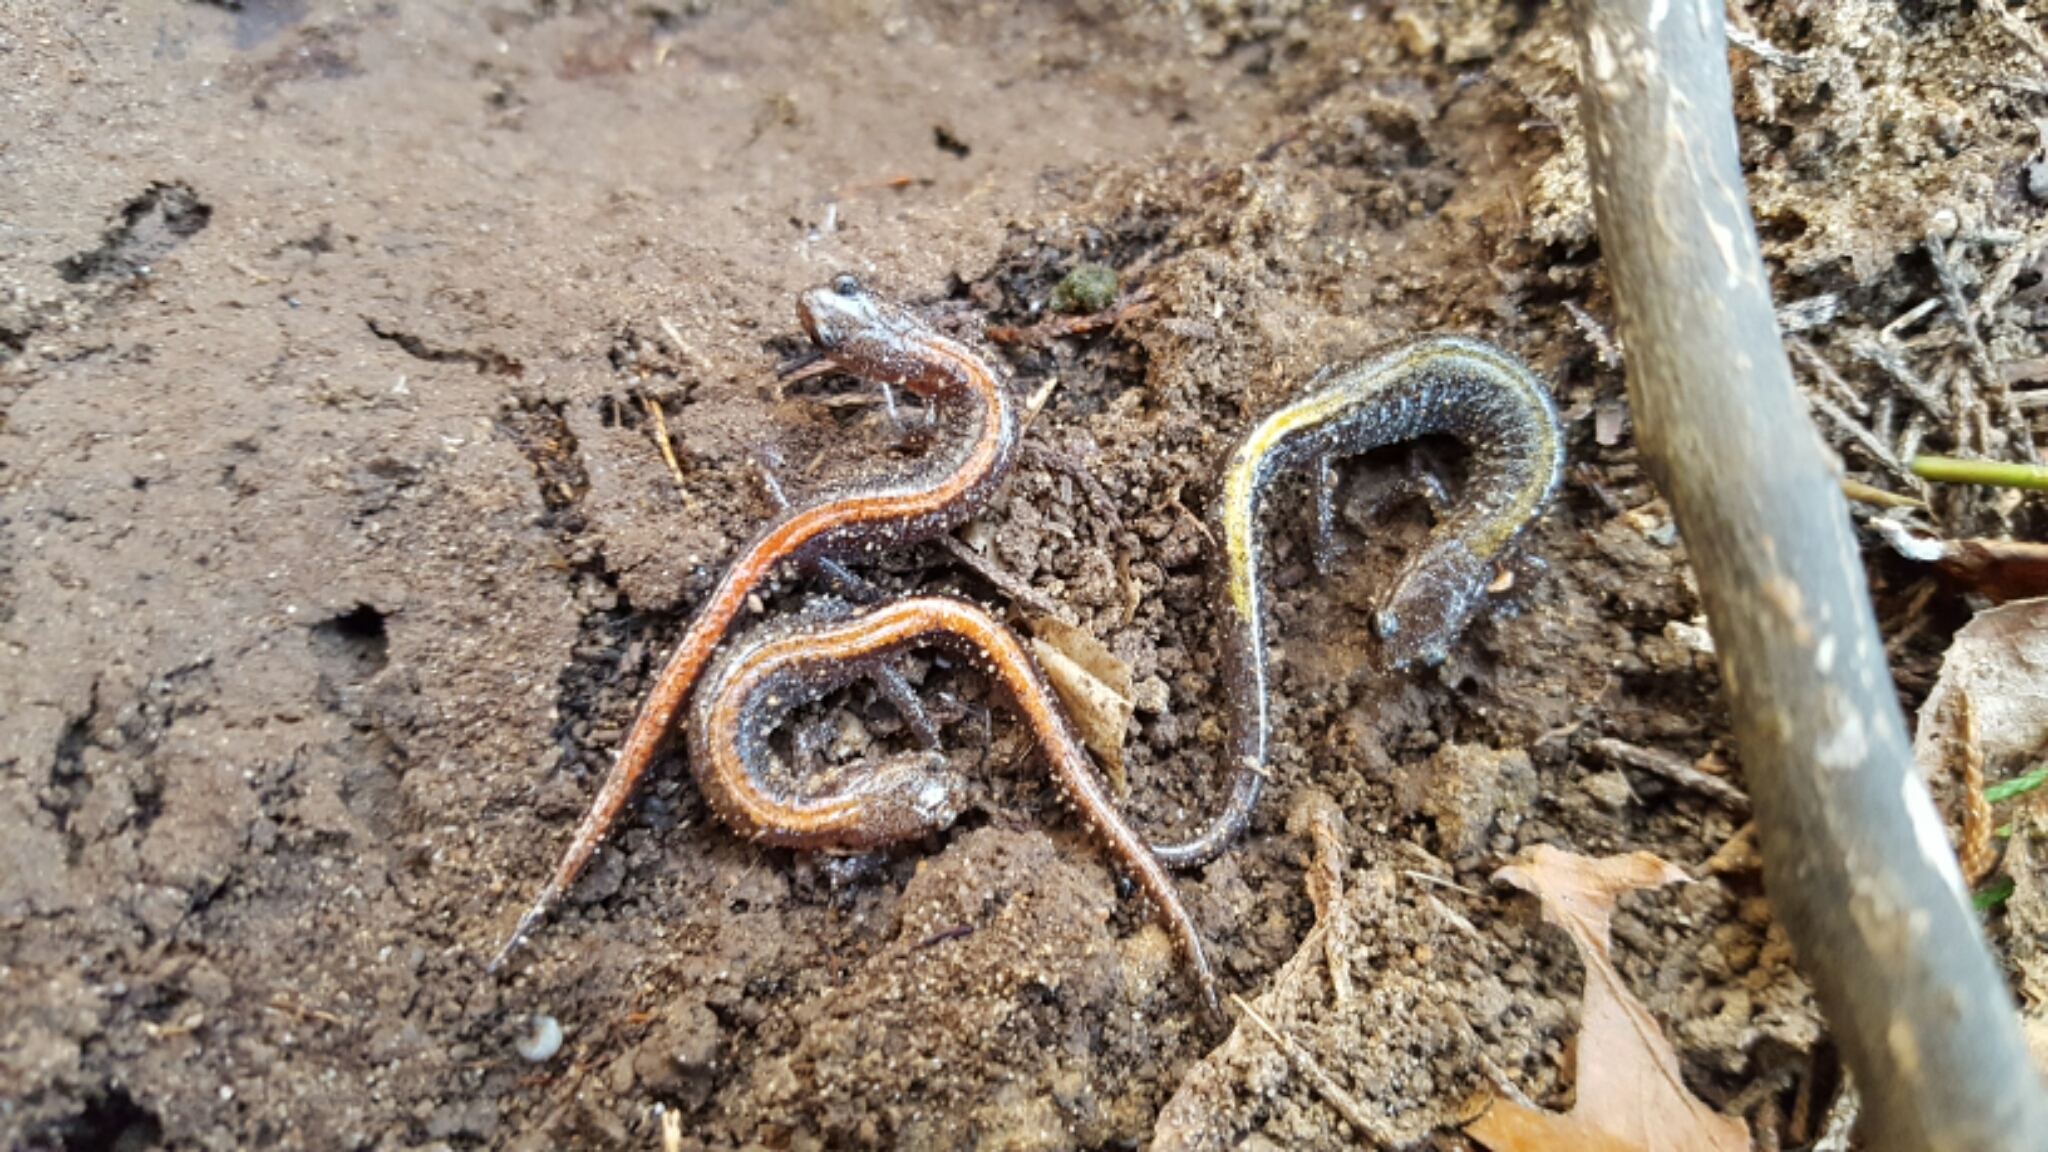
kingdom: Animalia
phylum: Chordata
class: Amphibia
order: Caudata
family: Plethodontidae
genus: Plethodon
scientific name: Plethodon angusticlavius
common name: Ozark zigzag salamander
